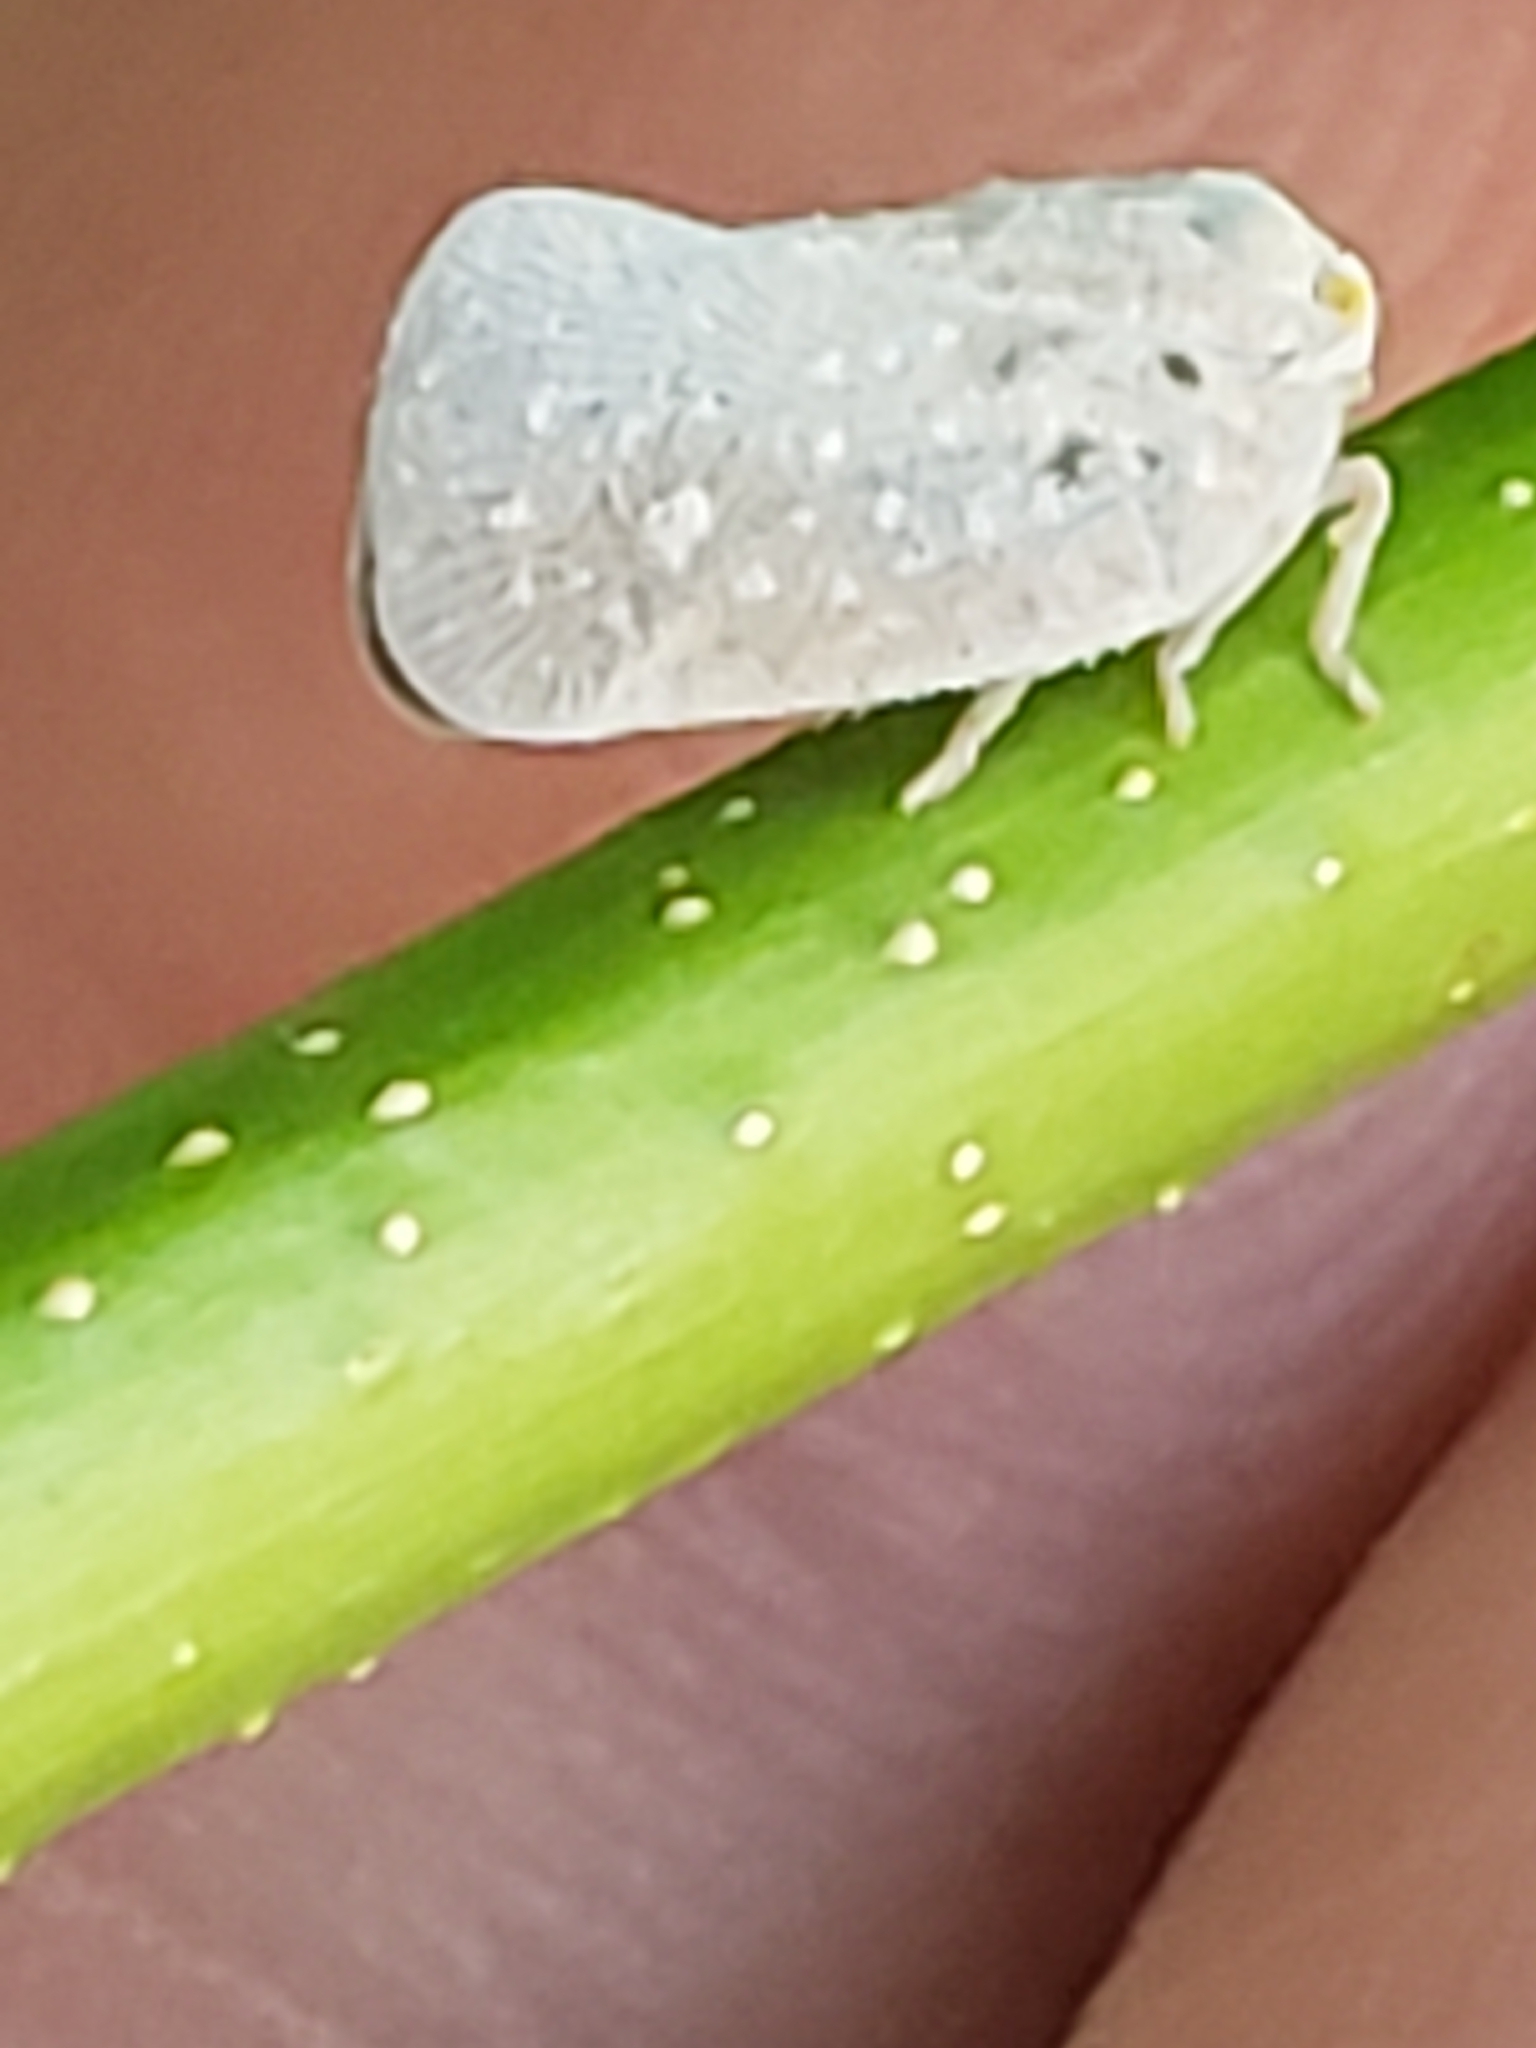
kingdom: Animalia
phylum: Arthropoda
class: Insecta
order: Hemiptera
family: Flatidae
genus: Metcalfa
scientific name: Metcalfa pruinosa
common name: Citrus flatid planthopper
